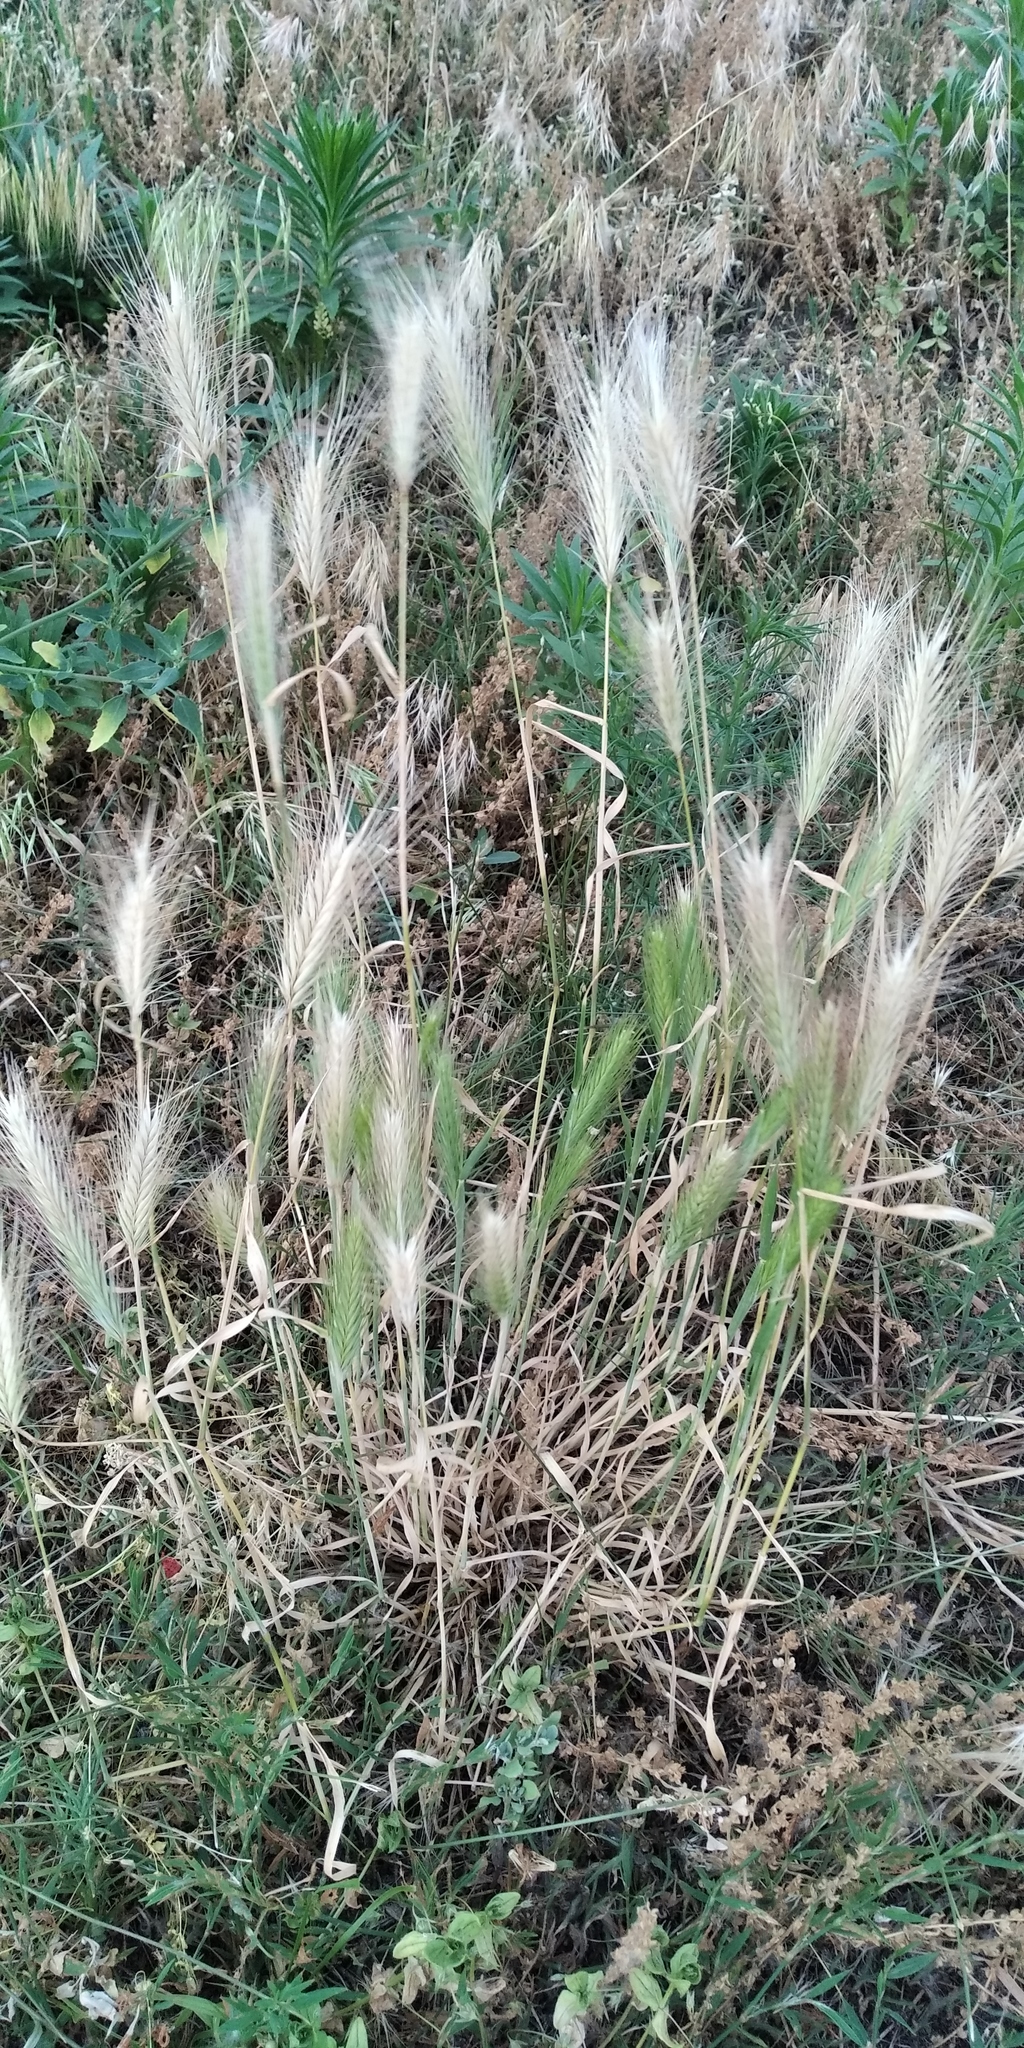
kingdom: Plantae
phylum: Tracheophyta
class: Liliopsida
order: Poales
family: Poaceae
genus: Hordeum
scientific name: Hordeum murinum
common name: Wall barley
